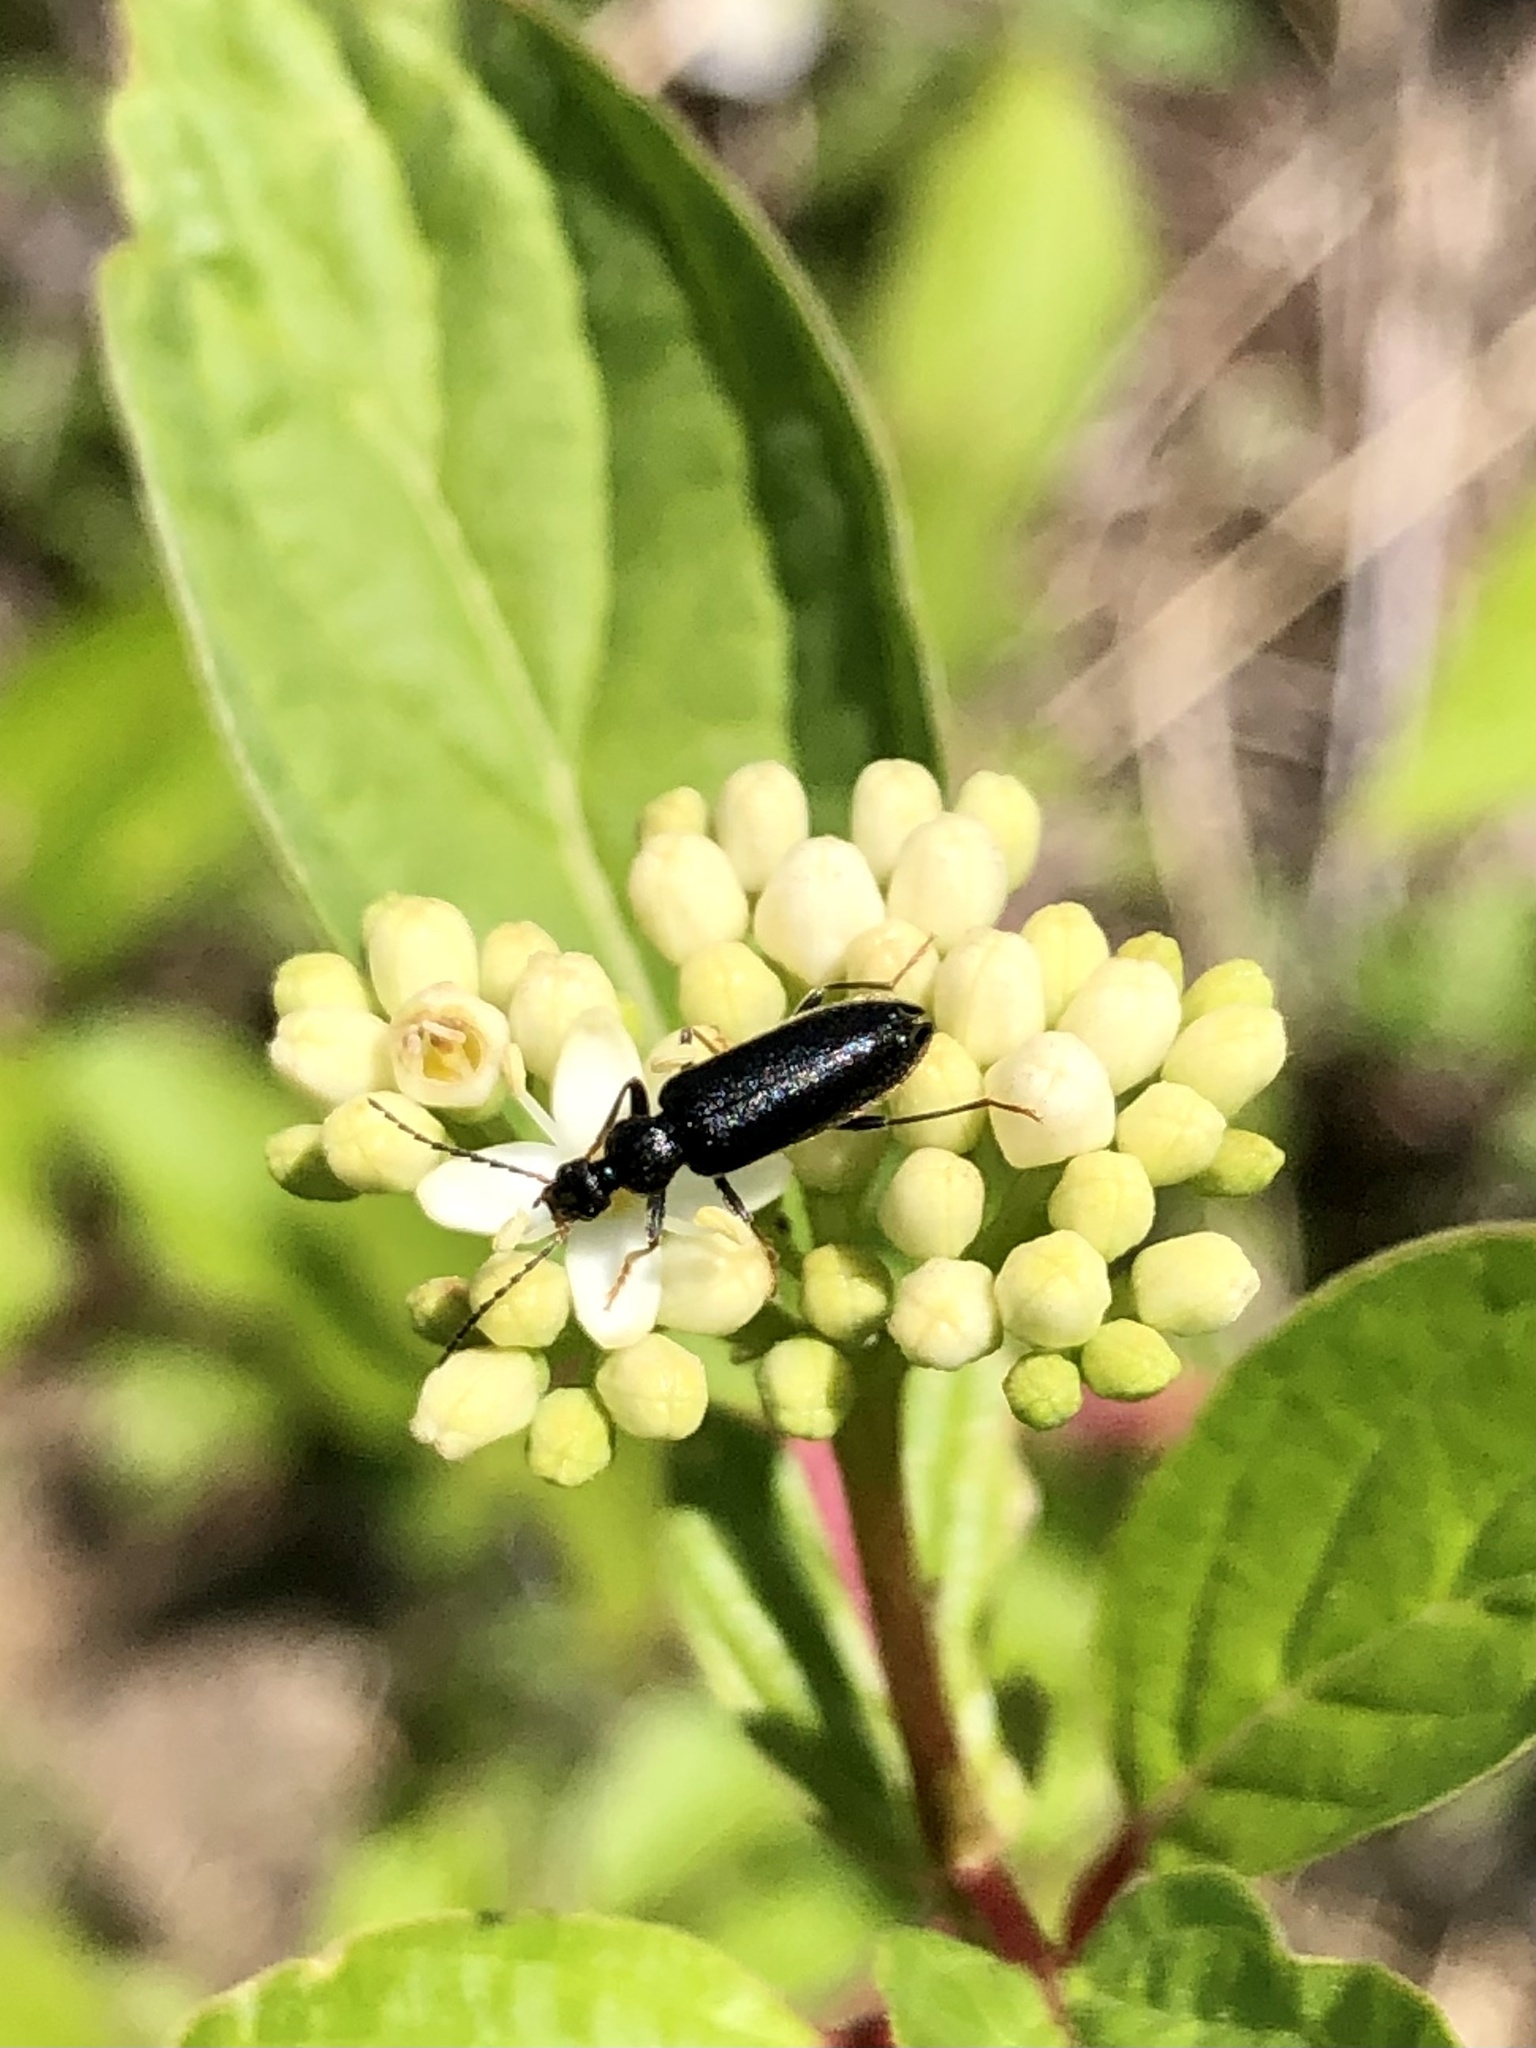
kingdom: Animalia
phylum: Arthropoda
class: Insecta
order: Coleoptera
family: Pyrochroidae
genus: Pedilus
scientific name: Pedilus lugubris
